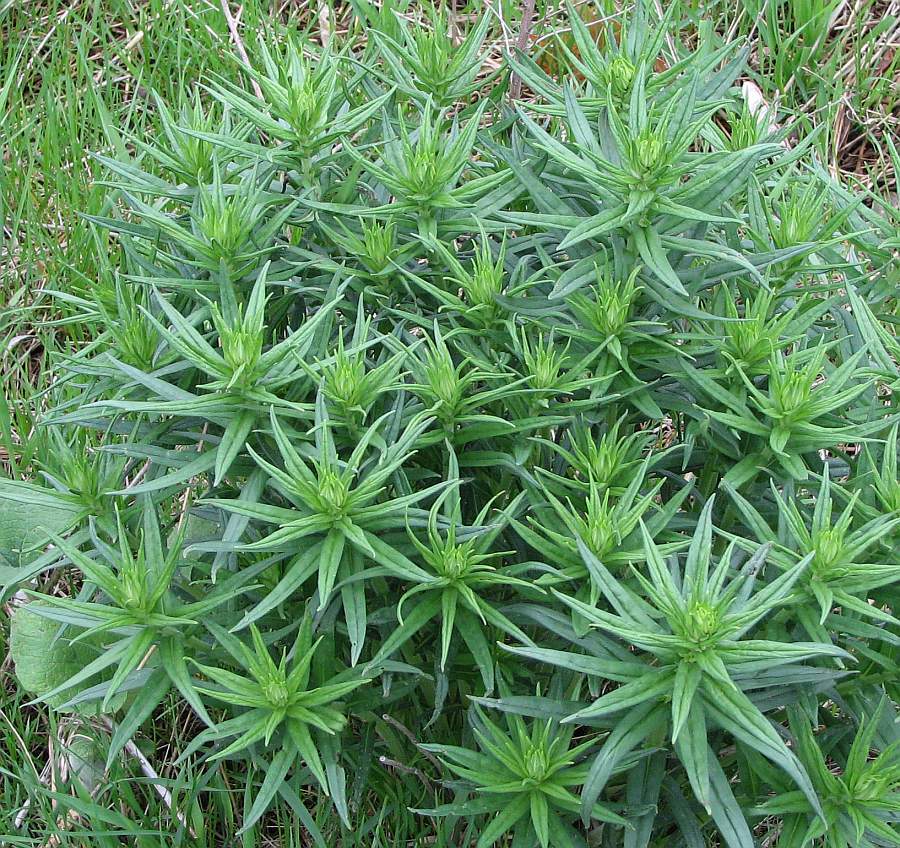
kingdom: Plantae
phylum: Tracheophyta
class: Magnoliopsida
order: Boraginales
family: Boraginaceae
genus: Buglossoides
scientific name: Buglossoides arvensis
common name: Corn gromwell
